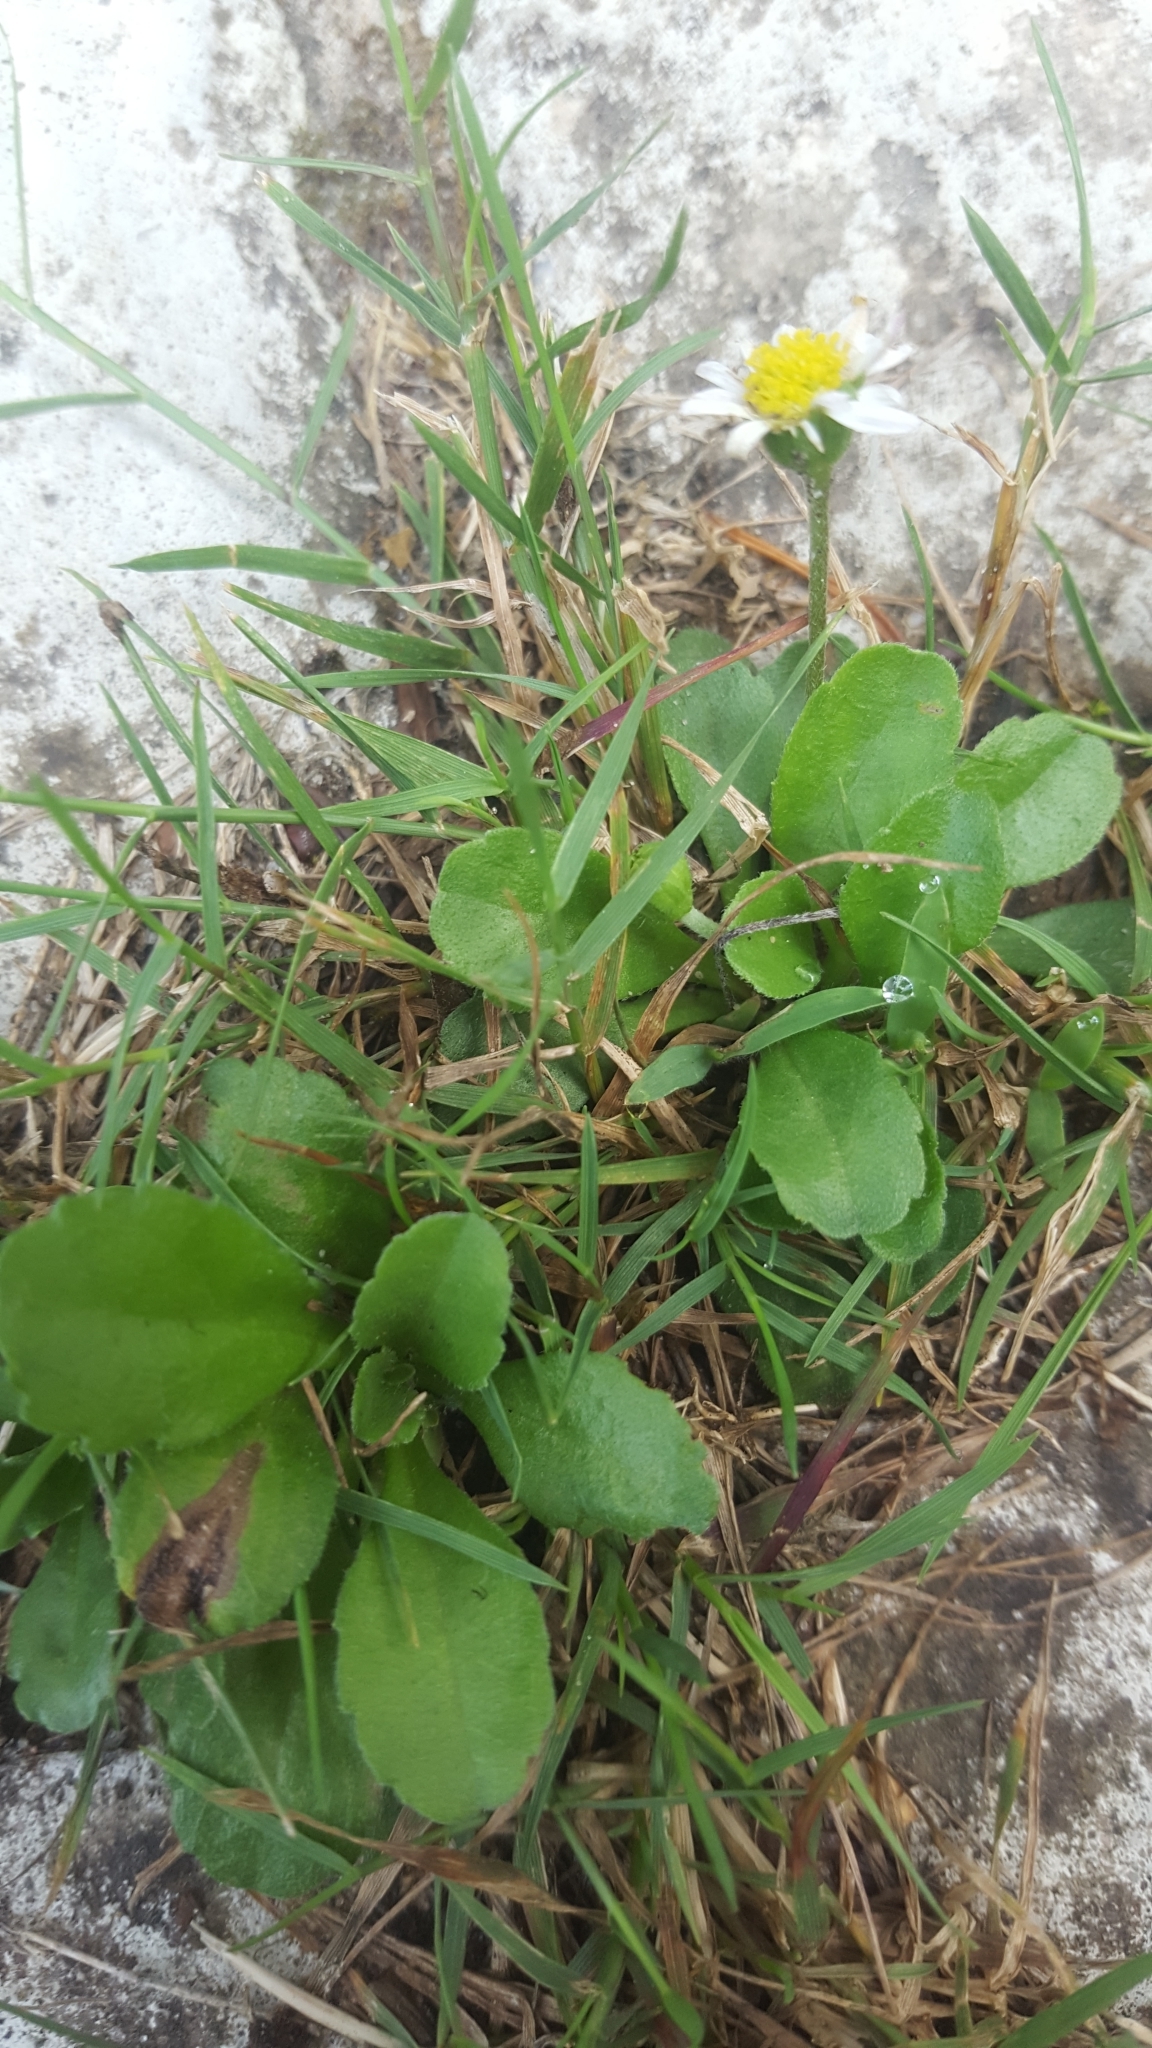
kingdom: Plantae
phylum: Tracheophyta
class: Magnoliopsida
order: Asterales
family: Asteraceae
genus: Bellis
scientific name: Bellis perennis
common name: Lawndaisy
